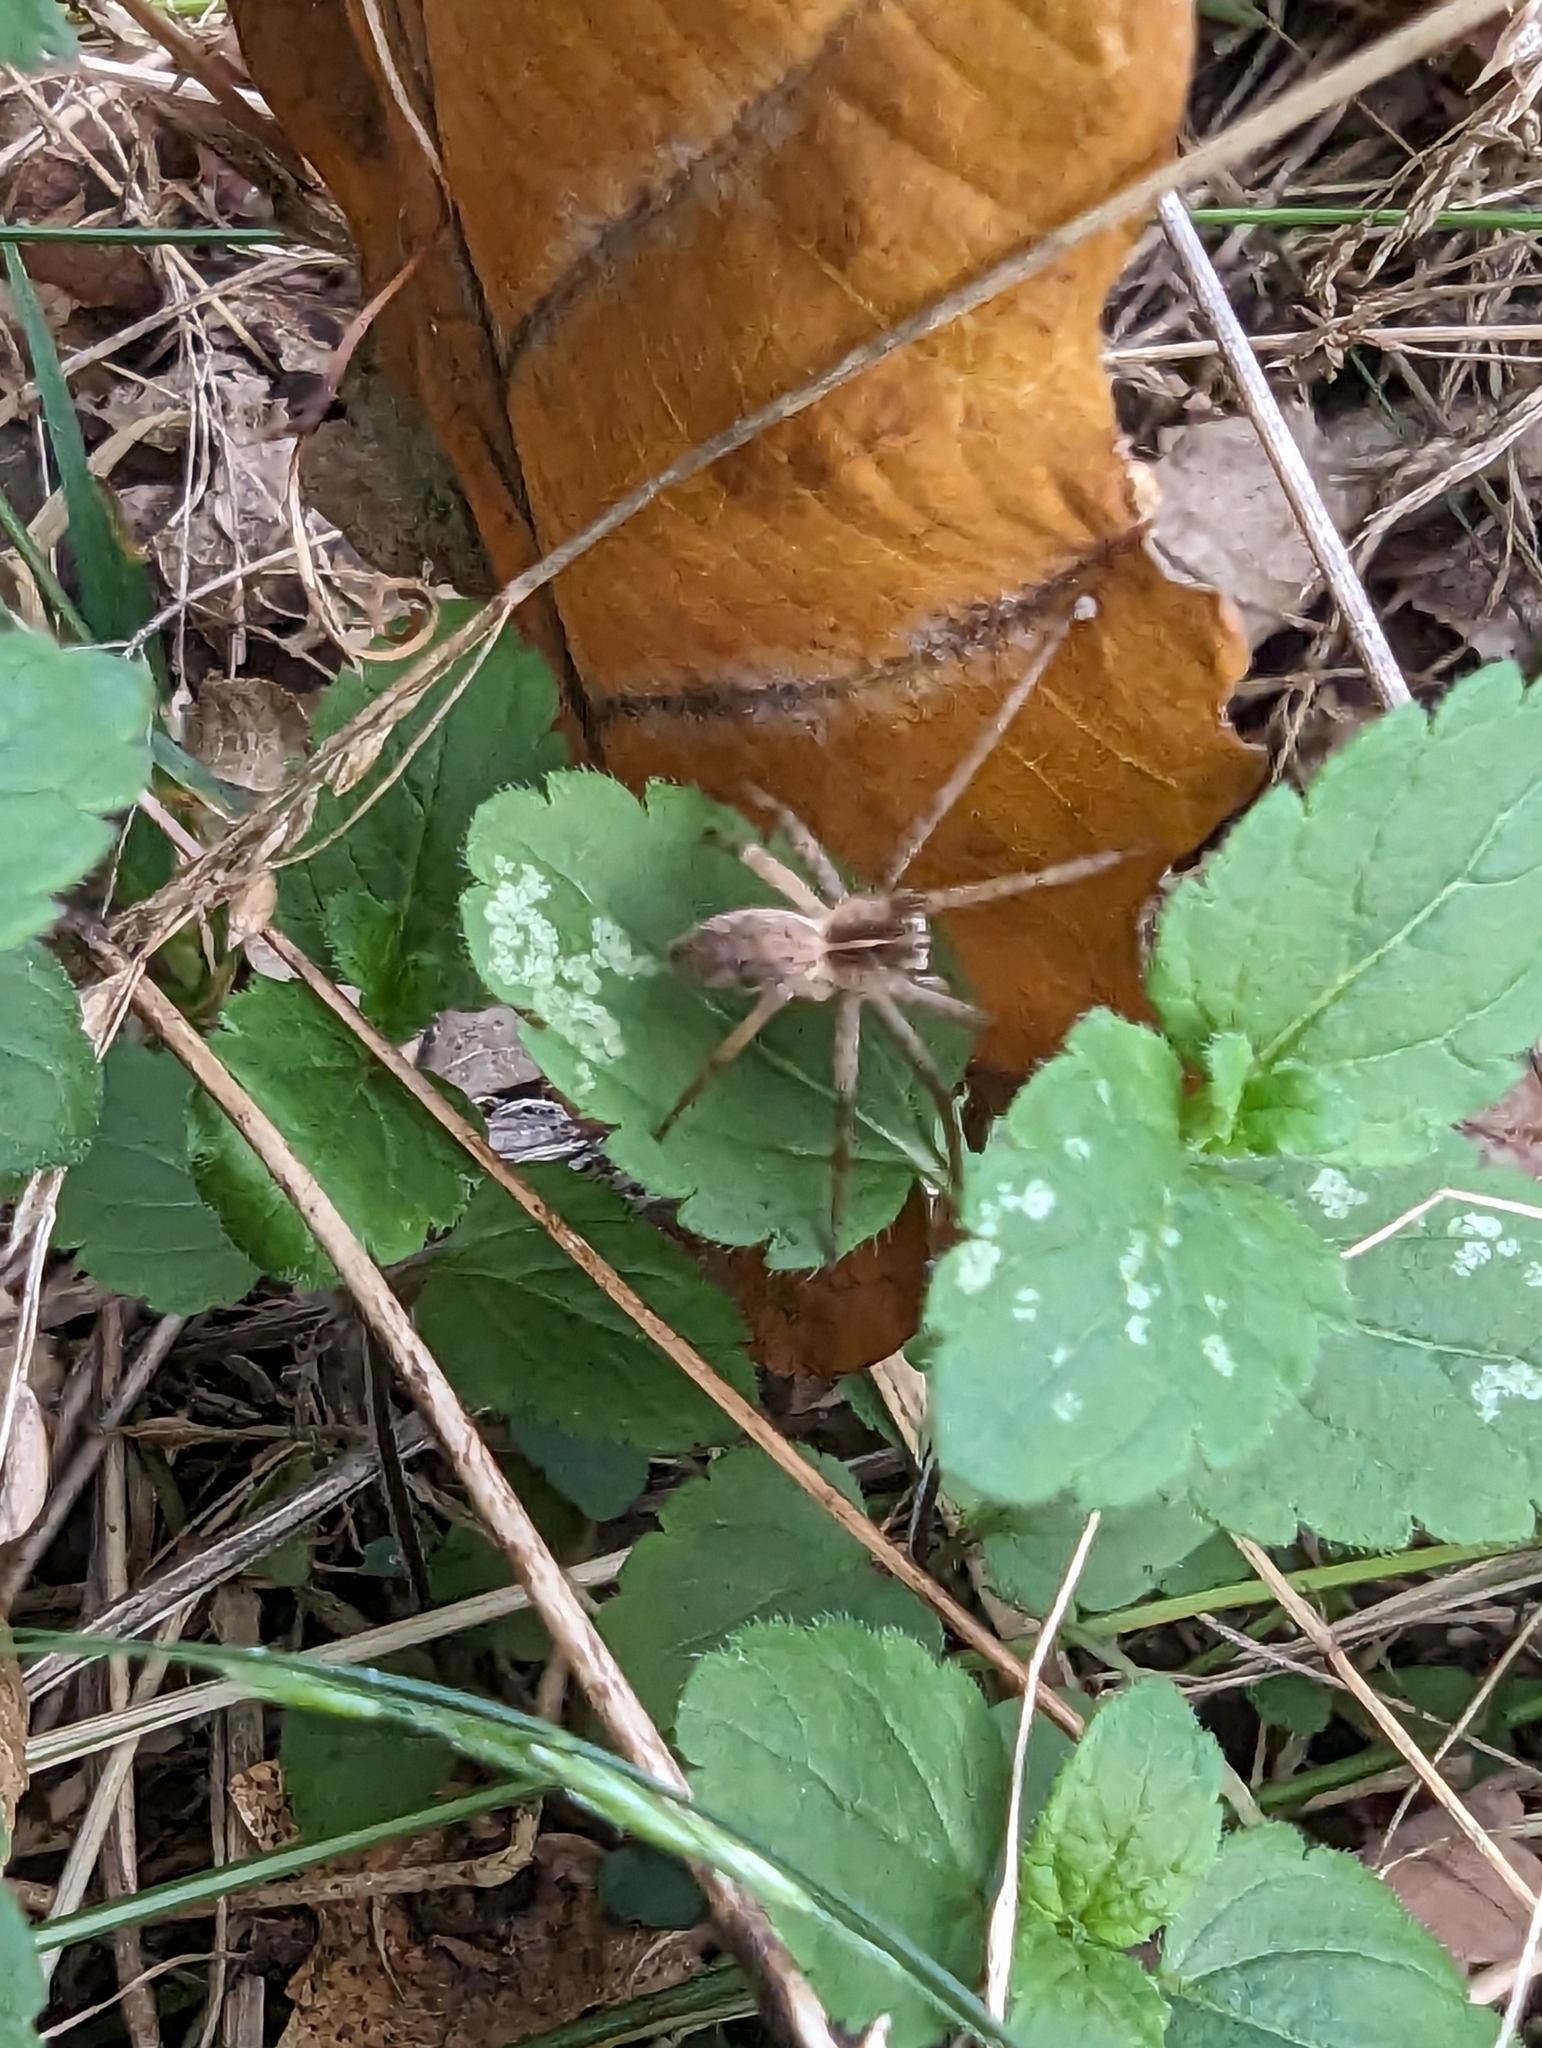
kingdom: Animalia
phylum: Arthropoda
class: Arachnida
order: Araneae
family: Pisauridae
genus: Pisaura
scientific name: Pisaura mirabilis
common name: Tent spider
